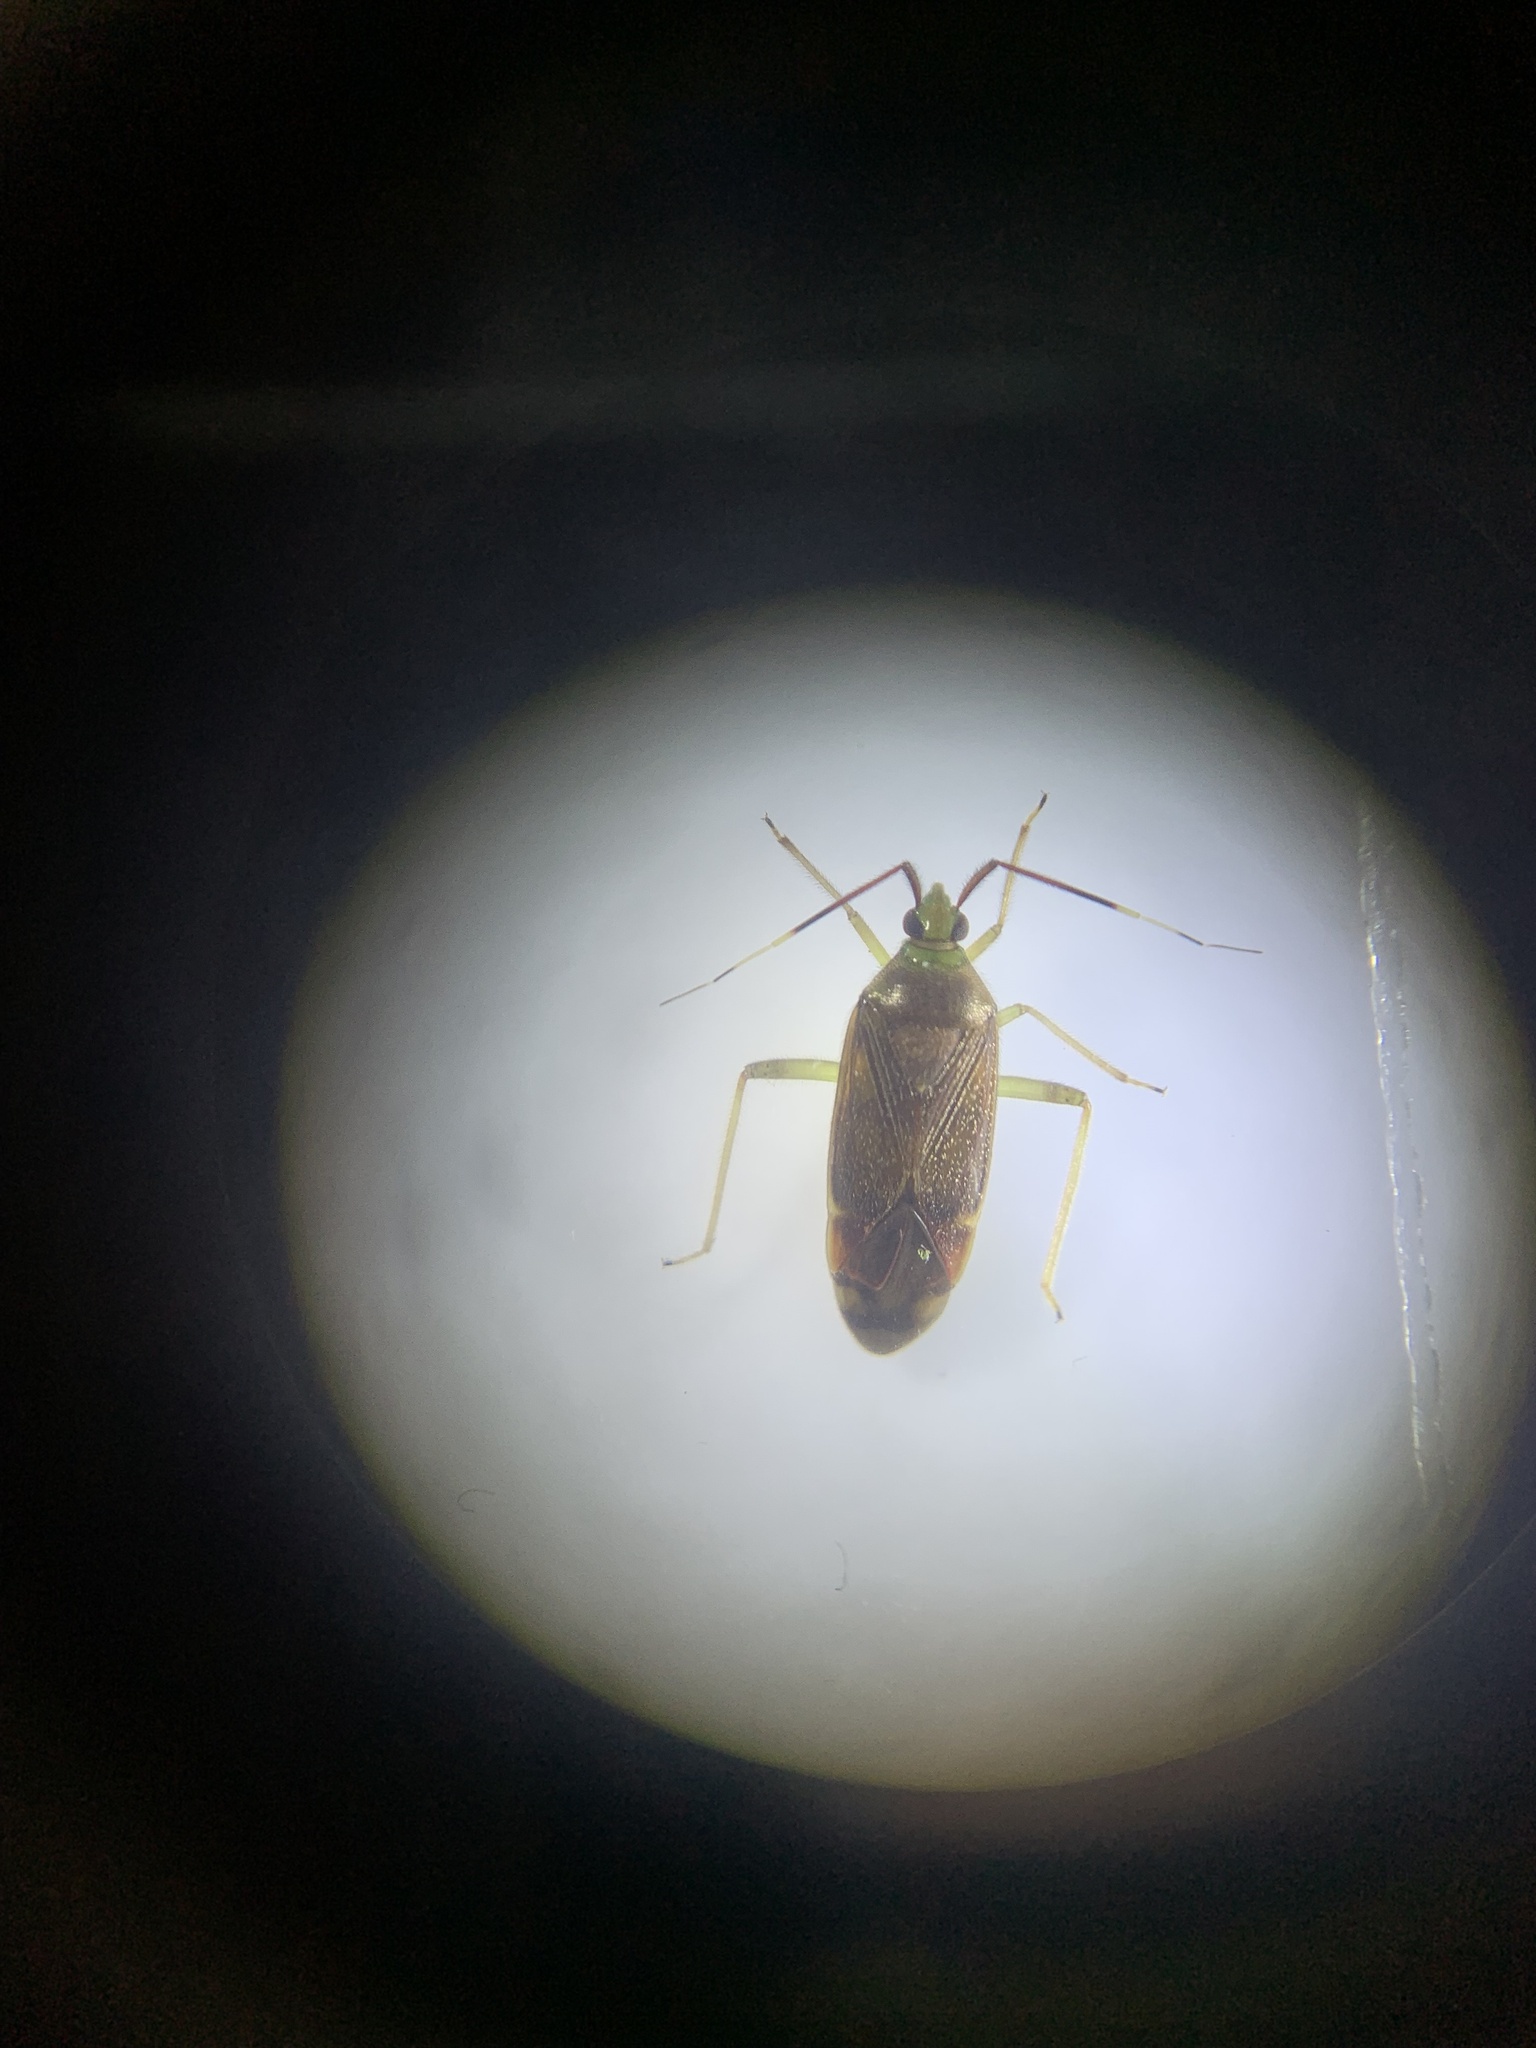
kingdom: Animalia
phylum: Arthropoda
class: Insecta
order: Hemiptera
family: Miridae
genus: Tolongia
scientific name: Tolongia pilosa
